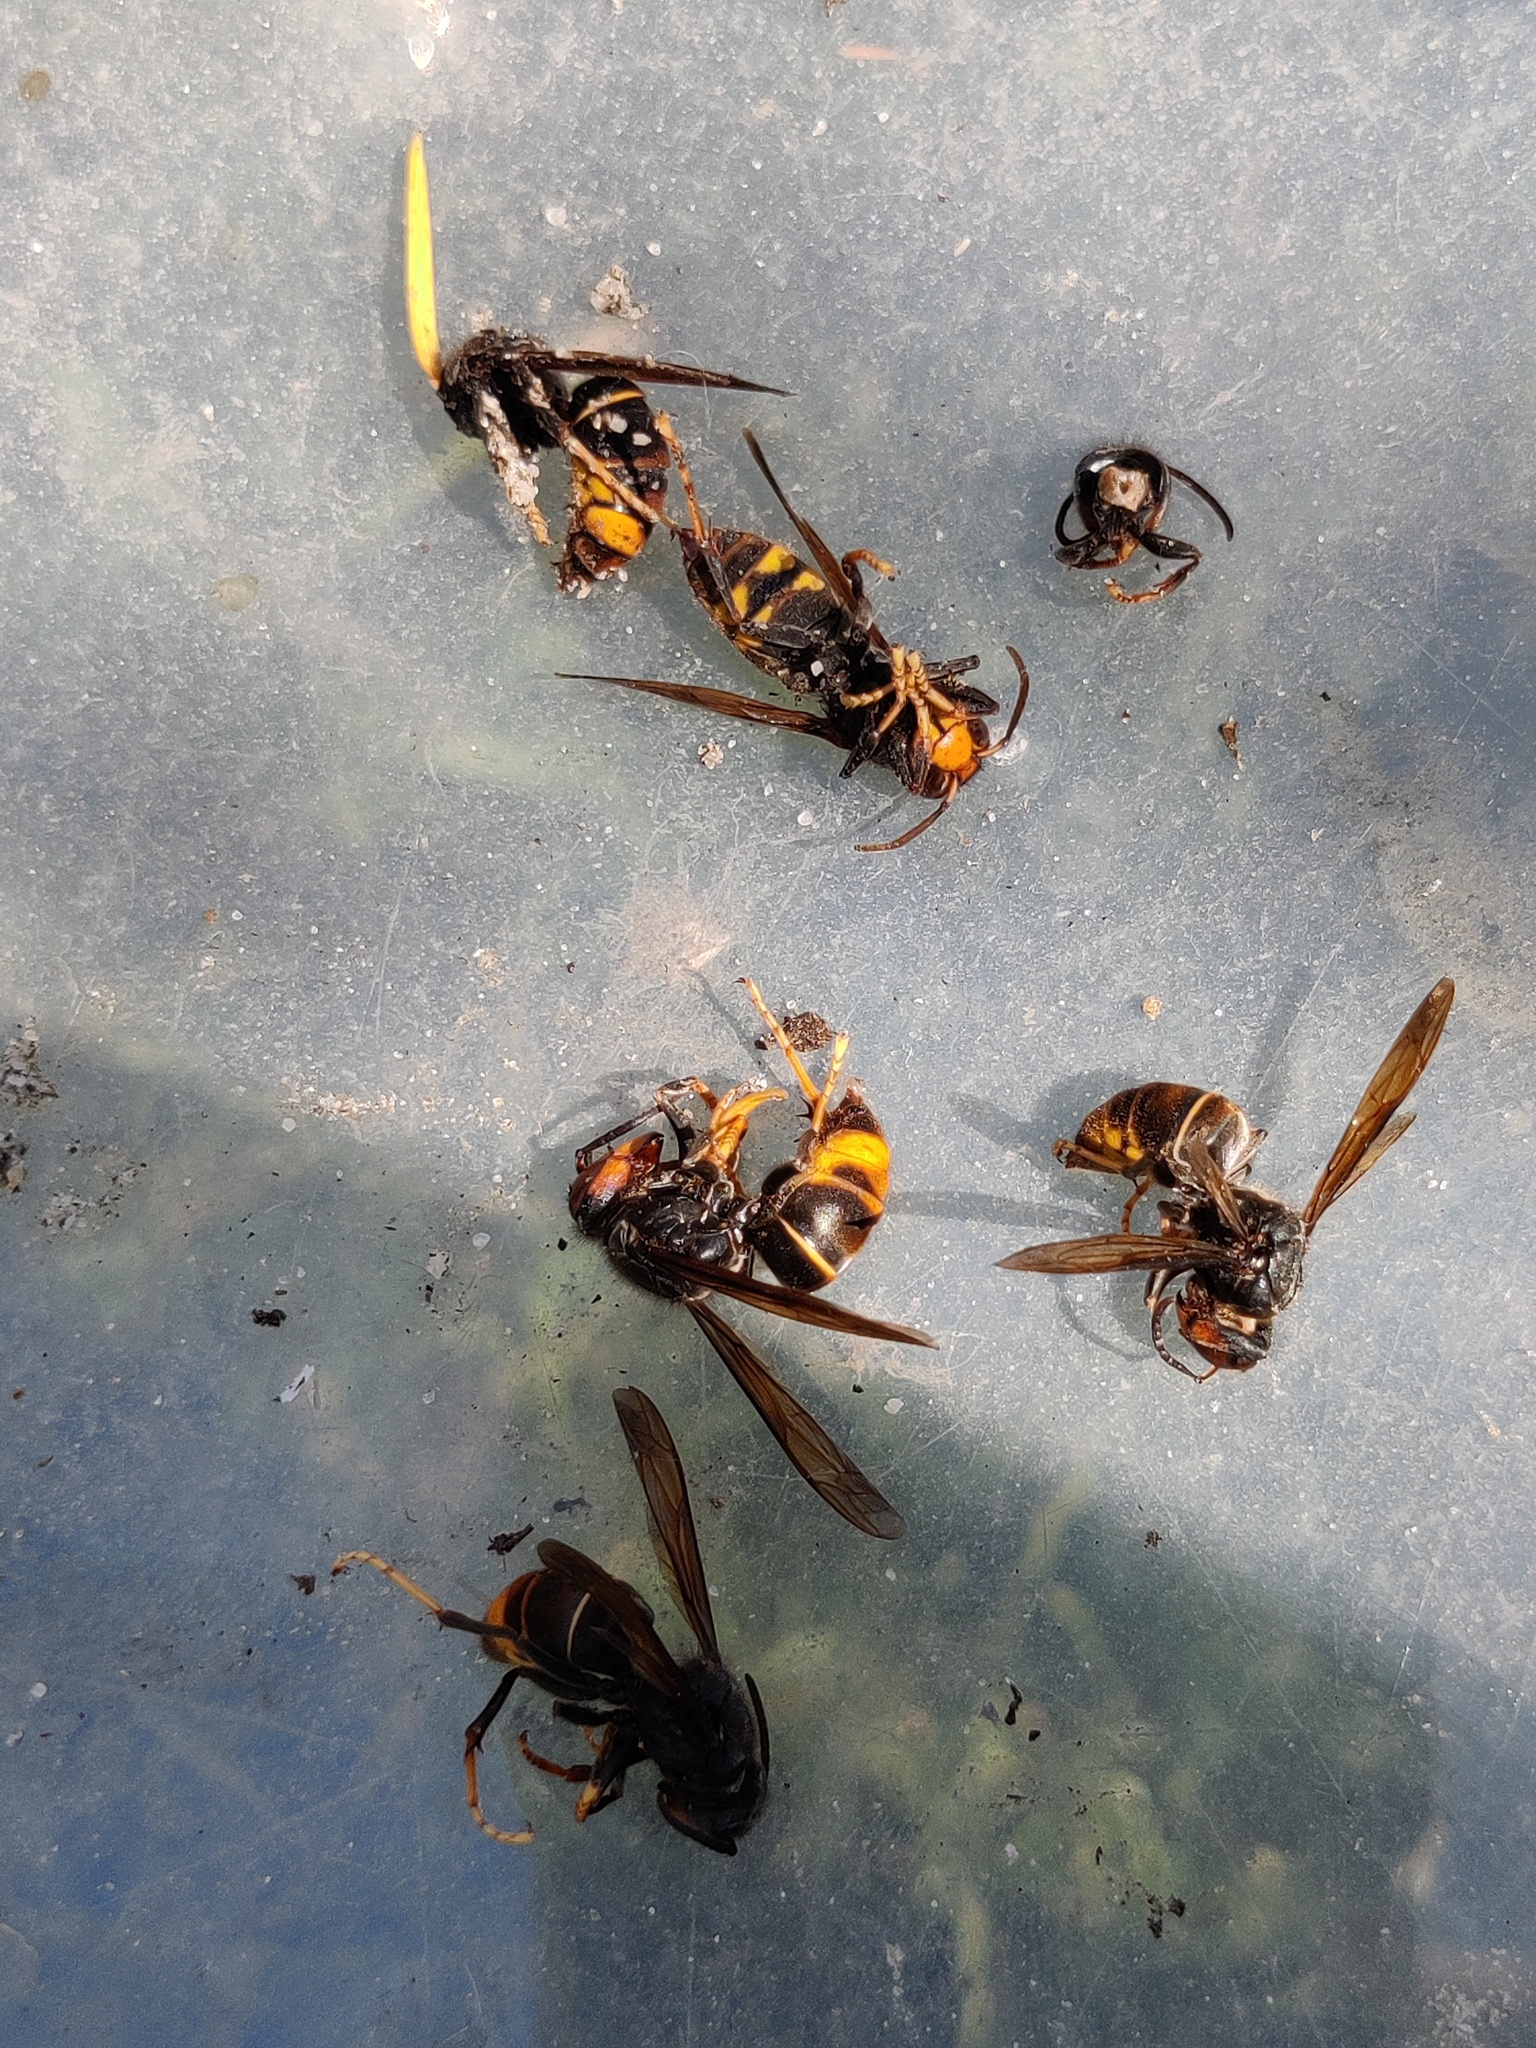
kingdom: Animalia
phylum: Arthropoda
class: Insecta
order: Hymenoptera
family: Vespidae
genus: Vespa
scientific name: Vespa velutina
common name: Asian hornet
